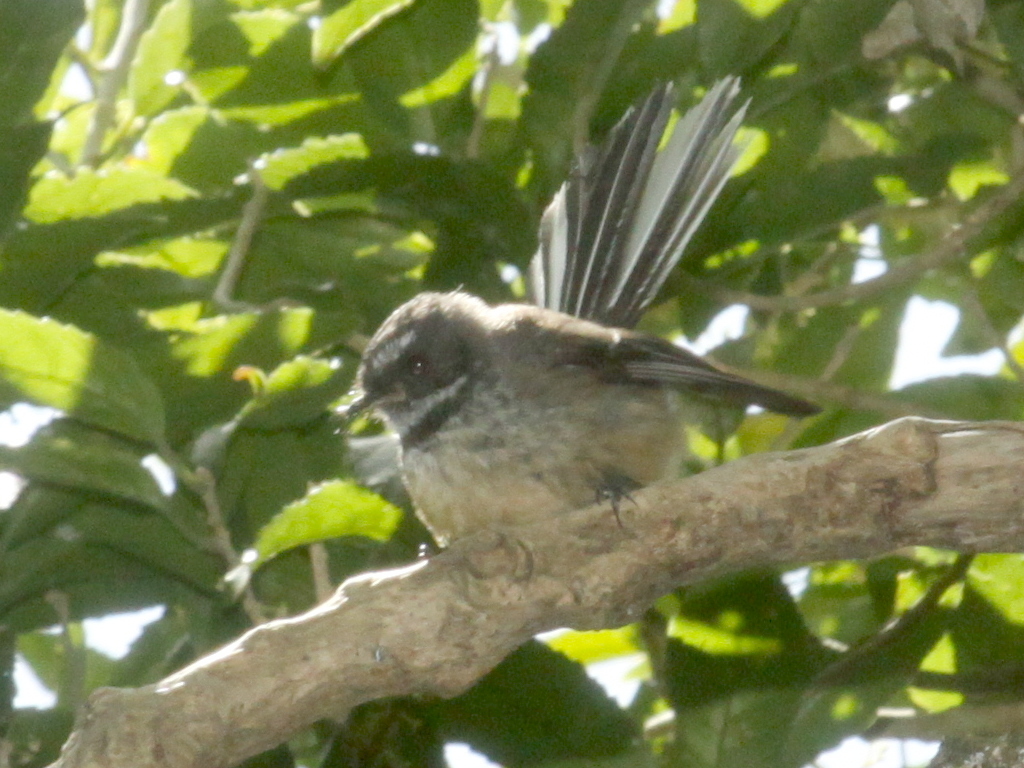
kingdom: Animalia
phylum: Chordata
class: Aves
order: Passeriformes
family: Rhipiduridae
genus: Rhipidura
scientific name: Rhipidura fuliginosa
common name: New zealand fantail
